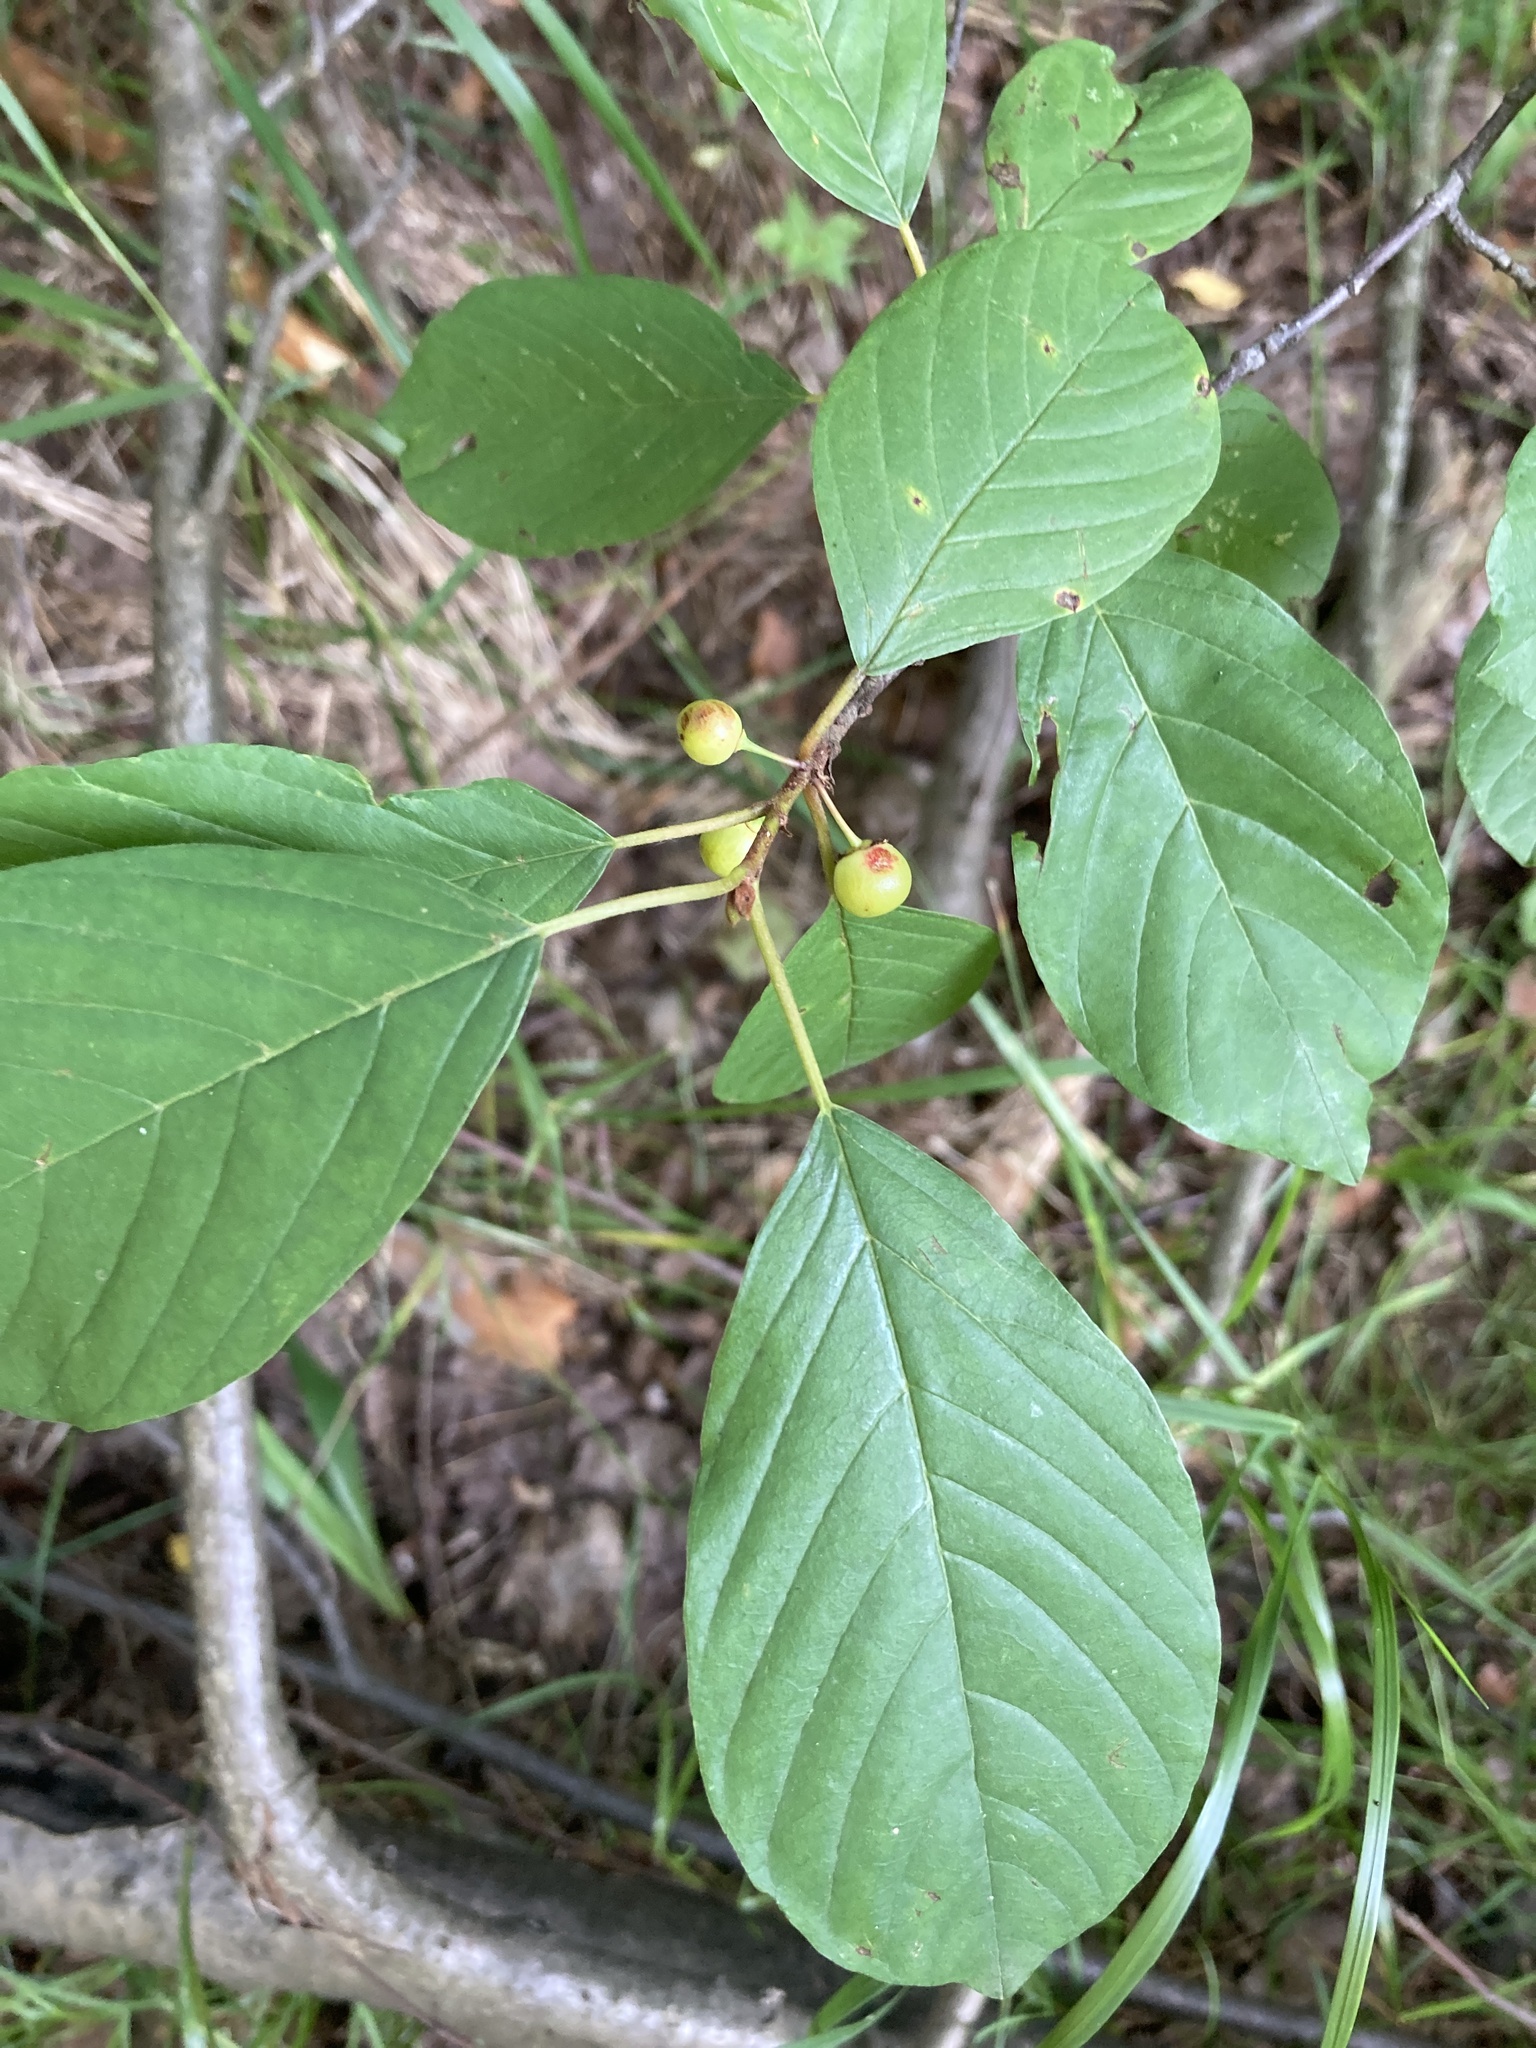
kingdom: Plantae
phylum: Tracheophyta
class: Magnoliopsida
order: Rosales
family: Rhamnaceae
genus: Frangula
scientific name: Frangula alnus
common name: Alder buckthorn
